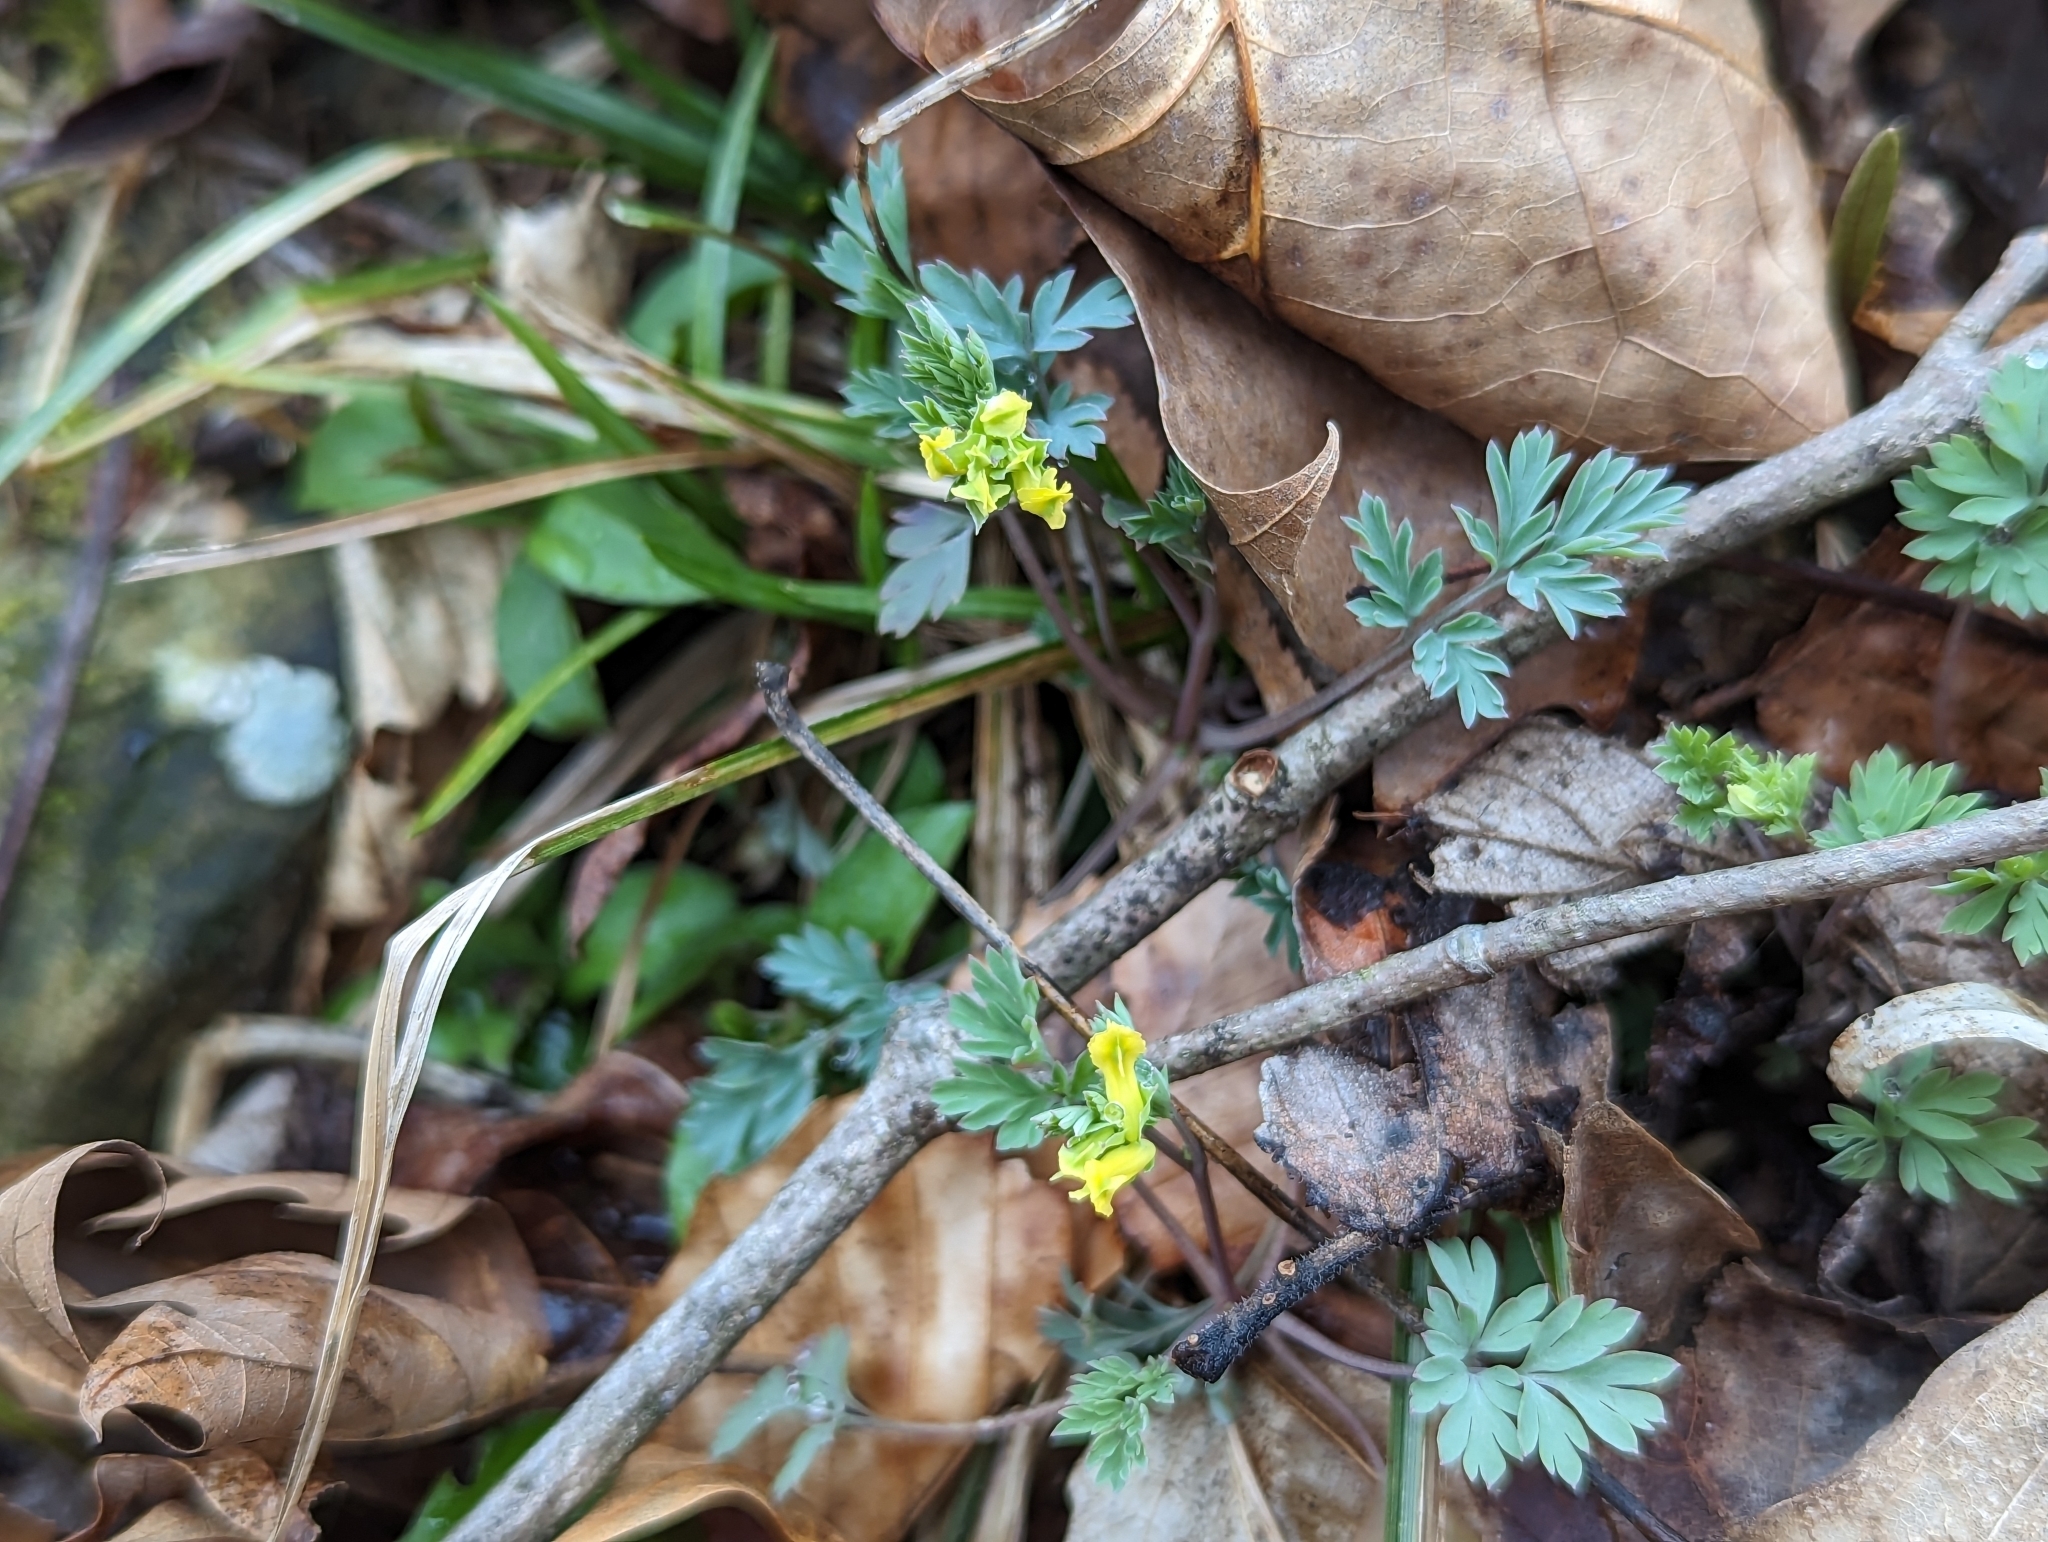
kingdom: Plantae
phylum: Tracheophyta
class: Magnoliopsida
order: Ranunculales
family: Papaveraceae
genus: Corydalis
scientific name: Corydalis flavula
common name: Yellow corydalis
